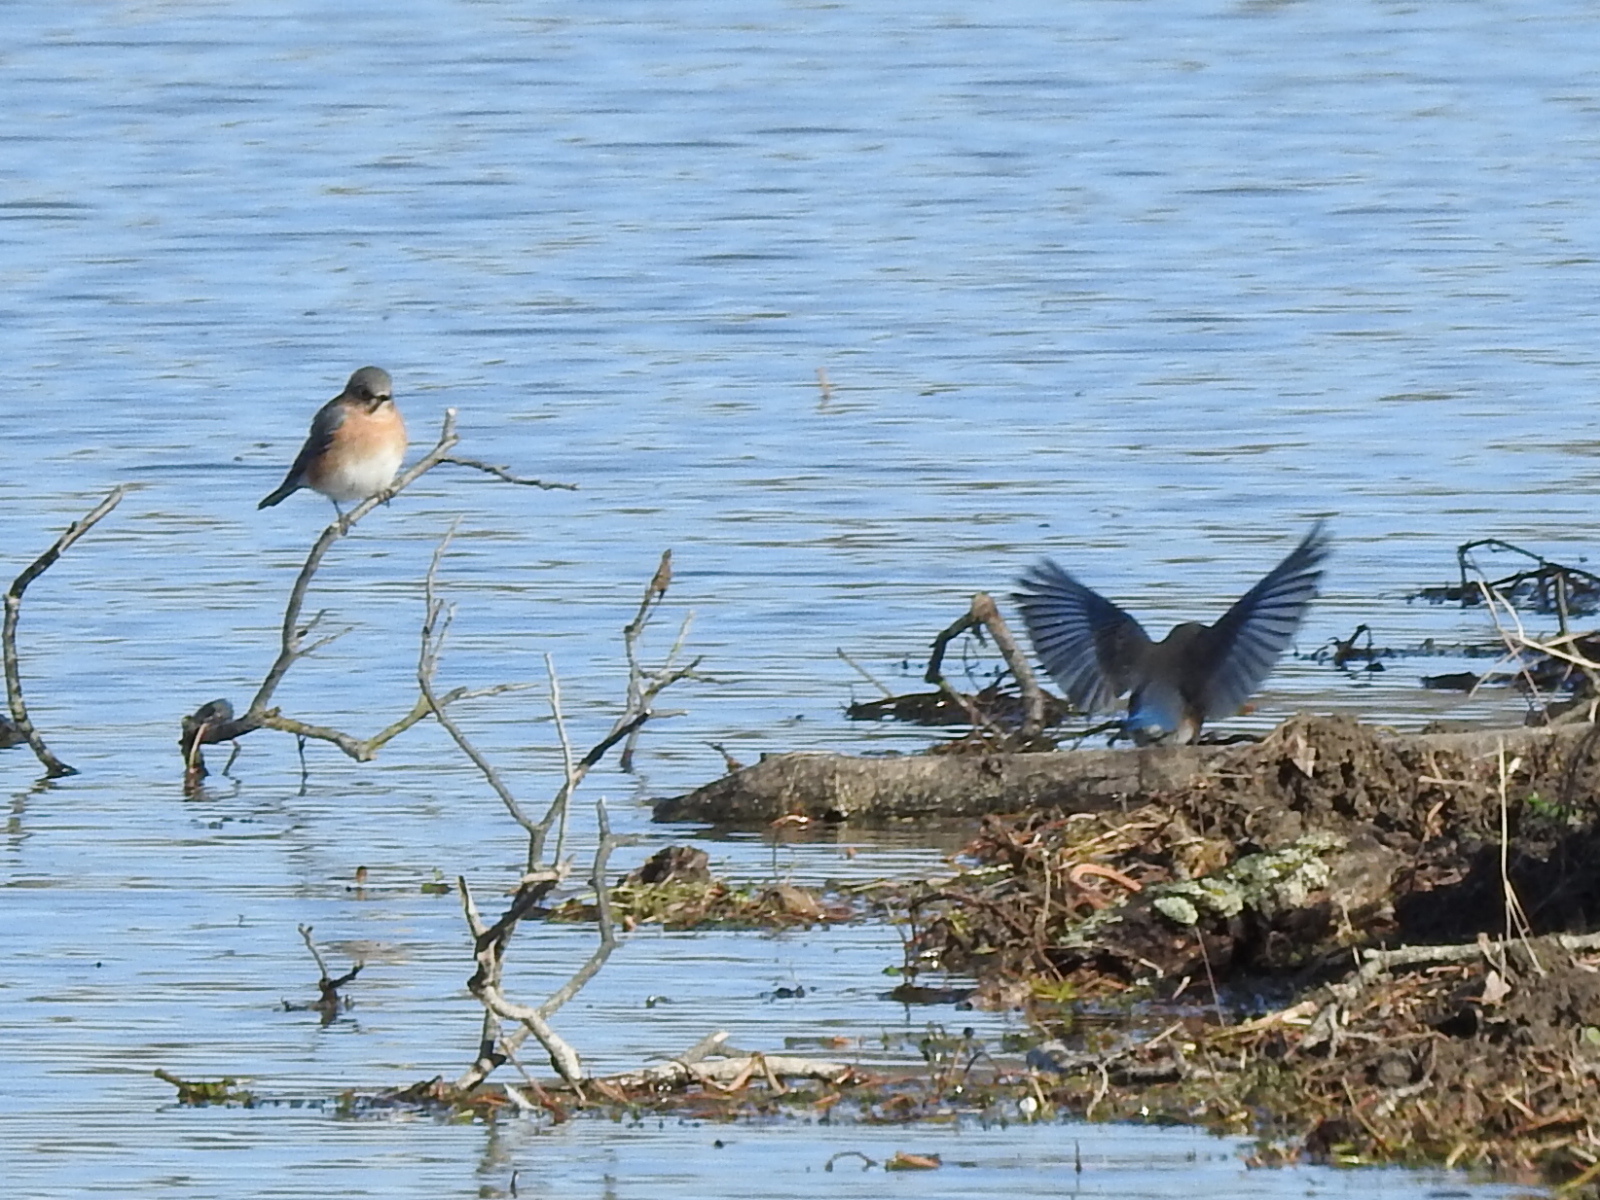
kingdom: Animalia
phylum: Chordata
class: Aves
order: Passeriformes
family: Turdidae
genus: Sialia
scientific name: Sialia sialis
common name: Eastern bluebird
